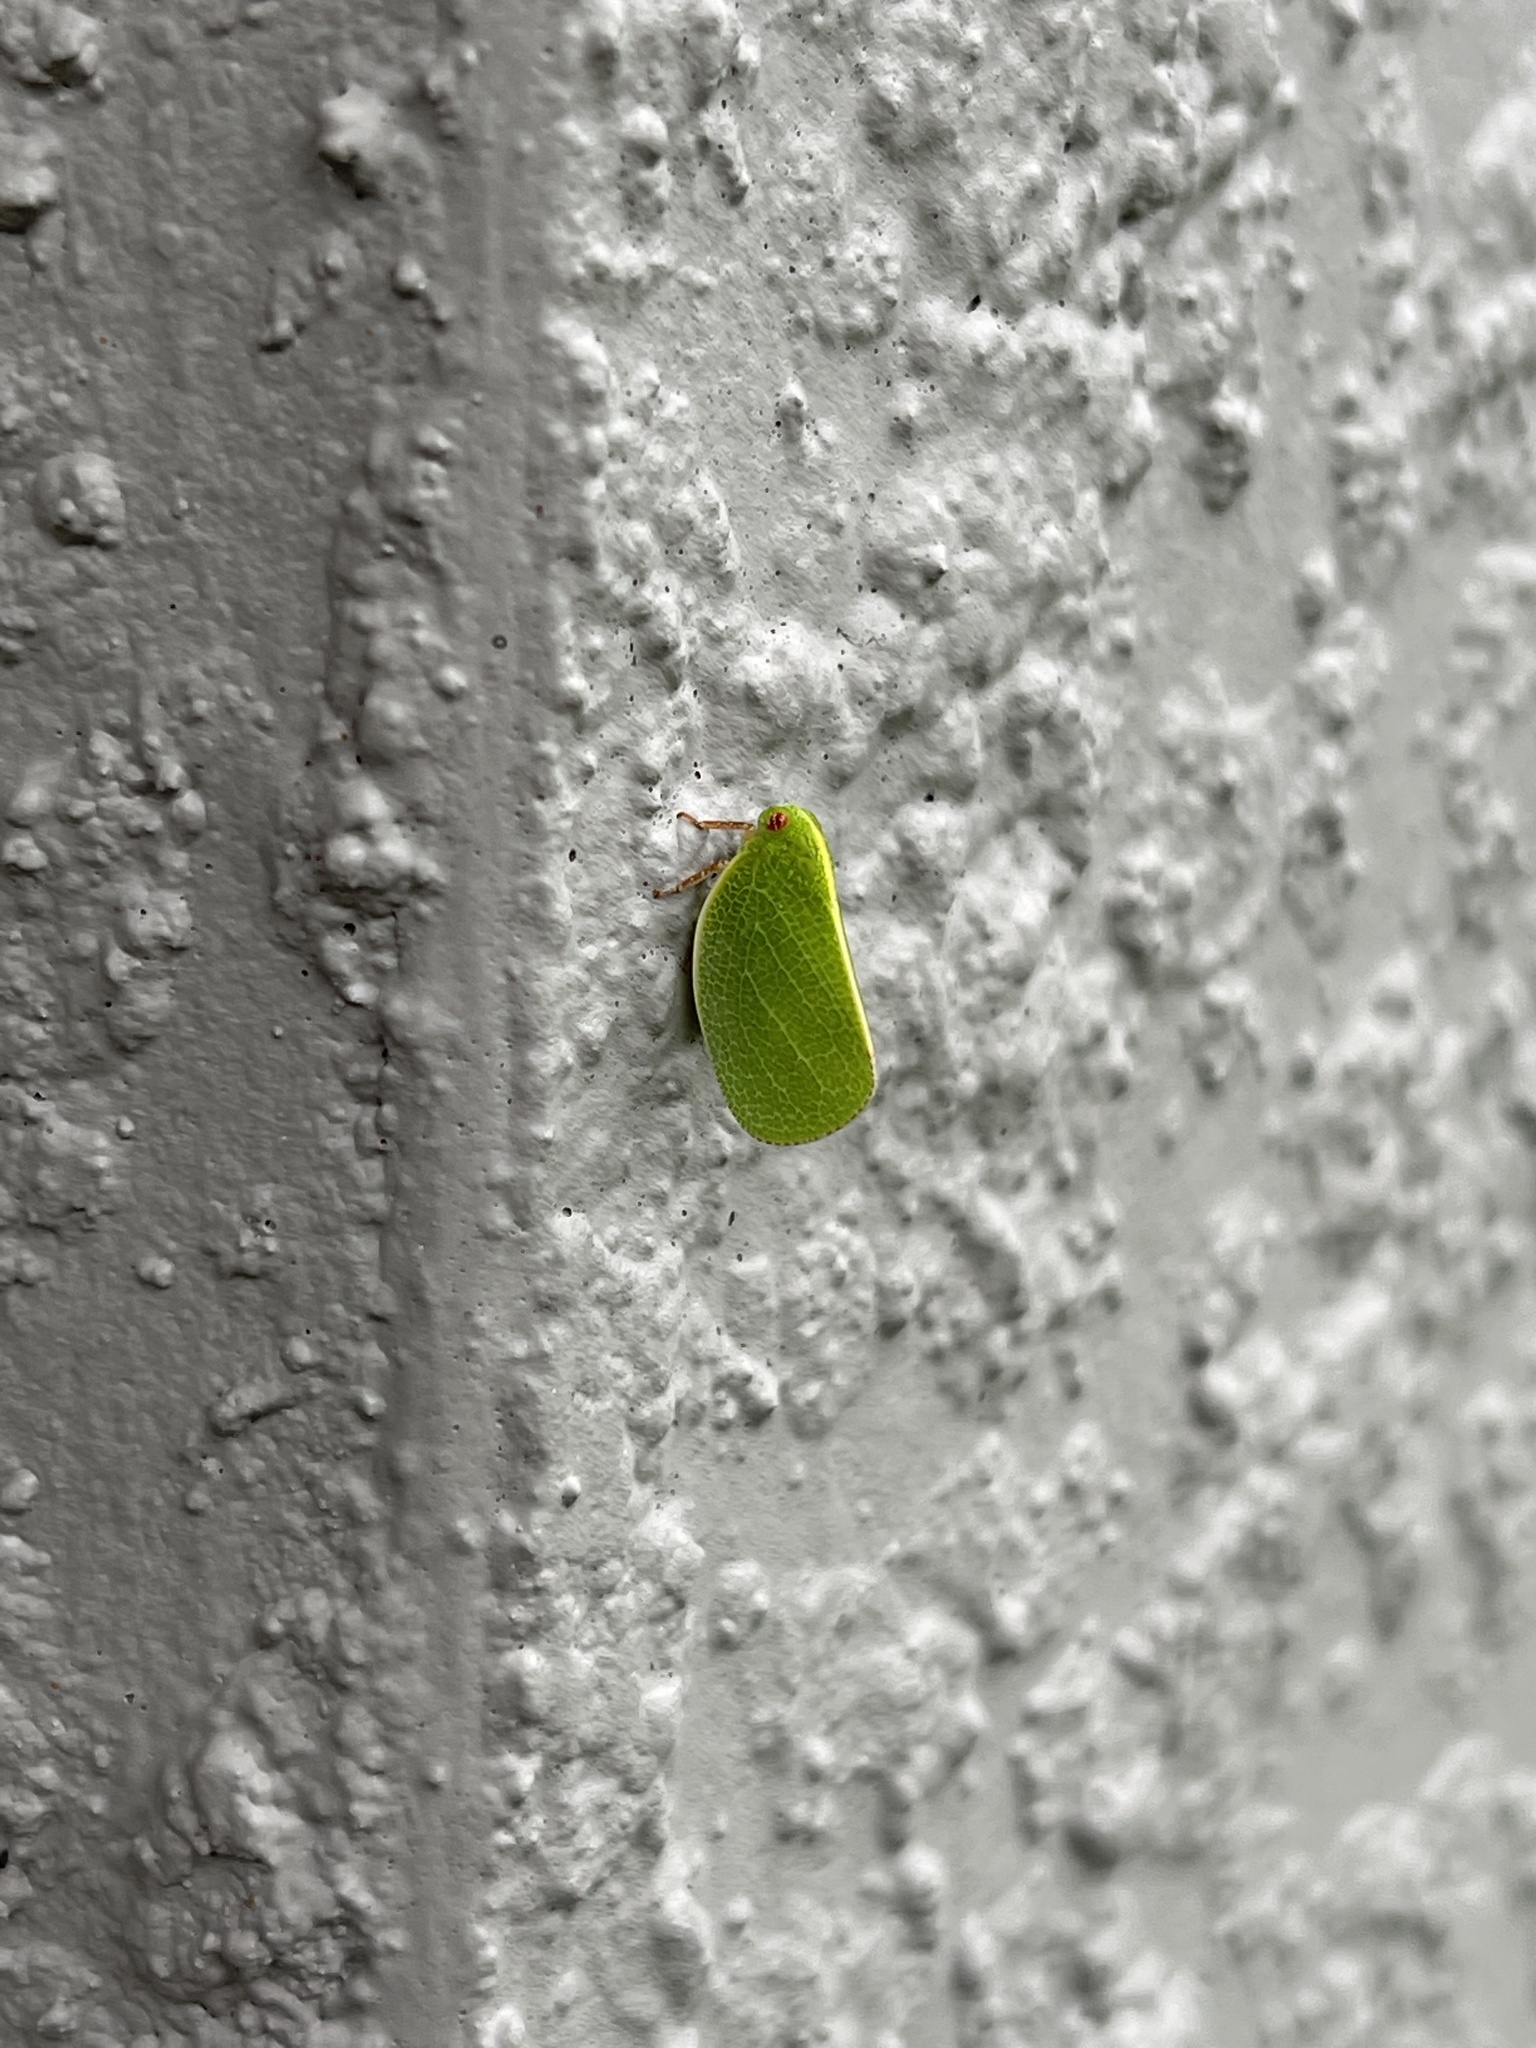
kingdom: Animalia
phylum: Arthropoda
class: Insecta
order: Hemiptera
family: Acanaloniidae
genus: Acanalonia
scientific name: Acanalonia servillei
